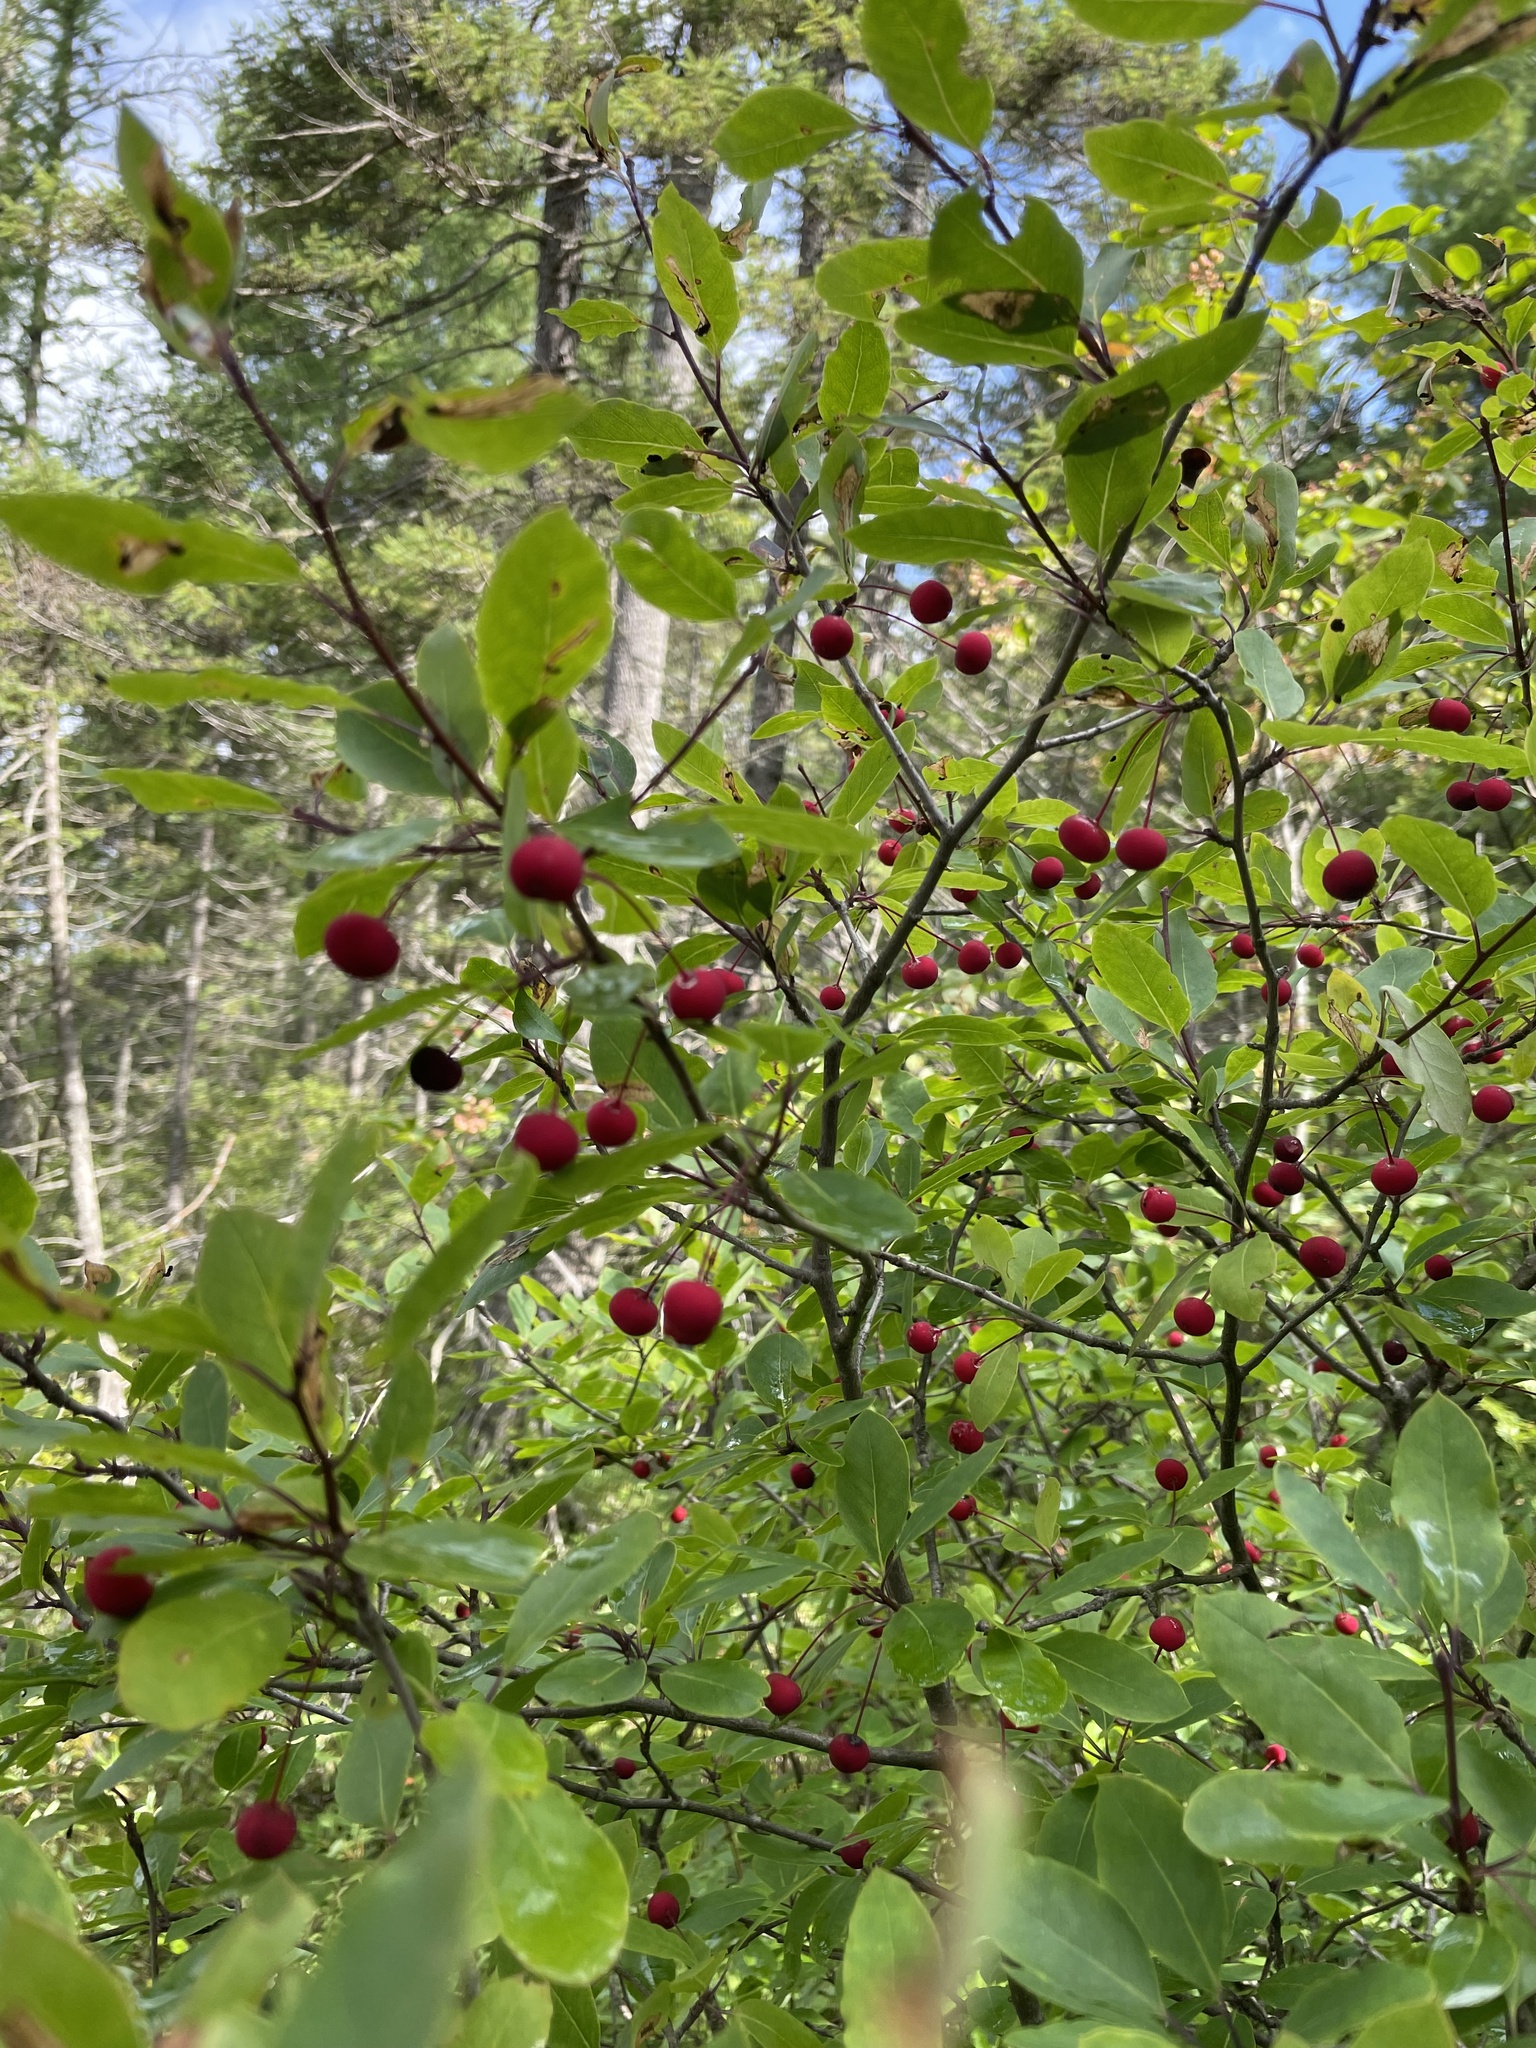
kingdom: Plantae
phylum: Tracheophyta
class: Magnoliopsida
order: Aquifoliales
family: Aquifoliaceae
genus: Ilex
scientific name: Ilex mucronata
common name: Catberry
